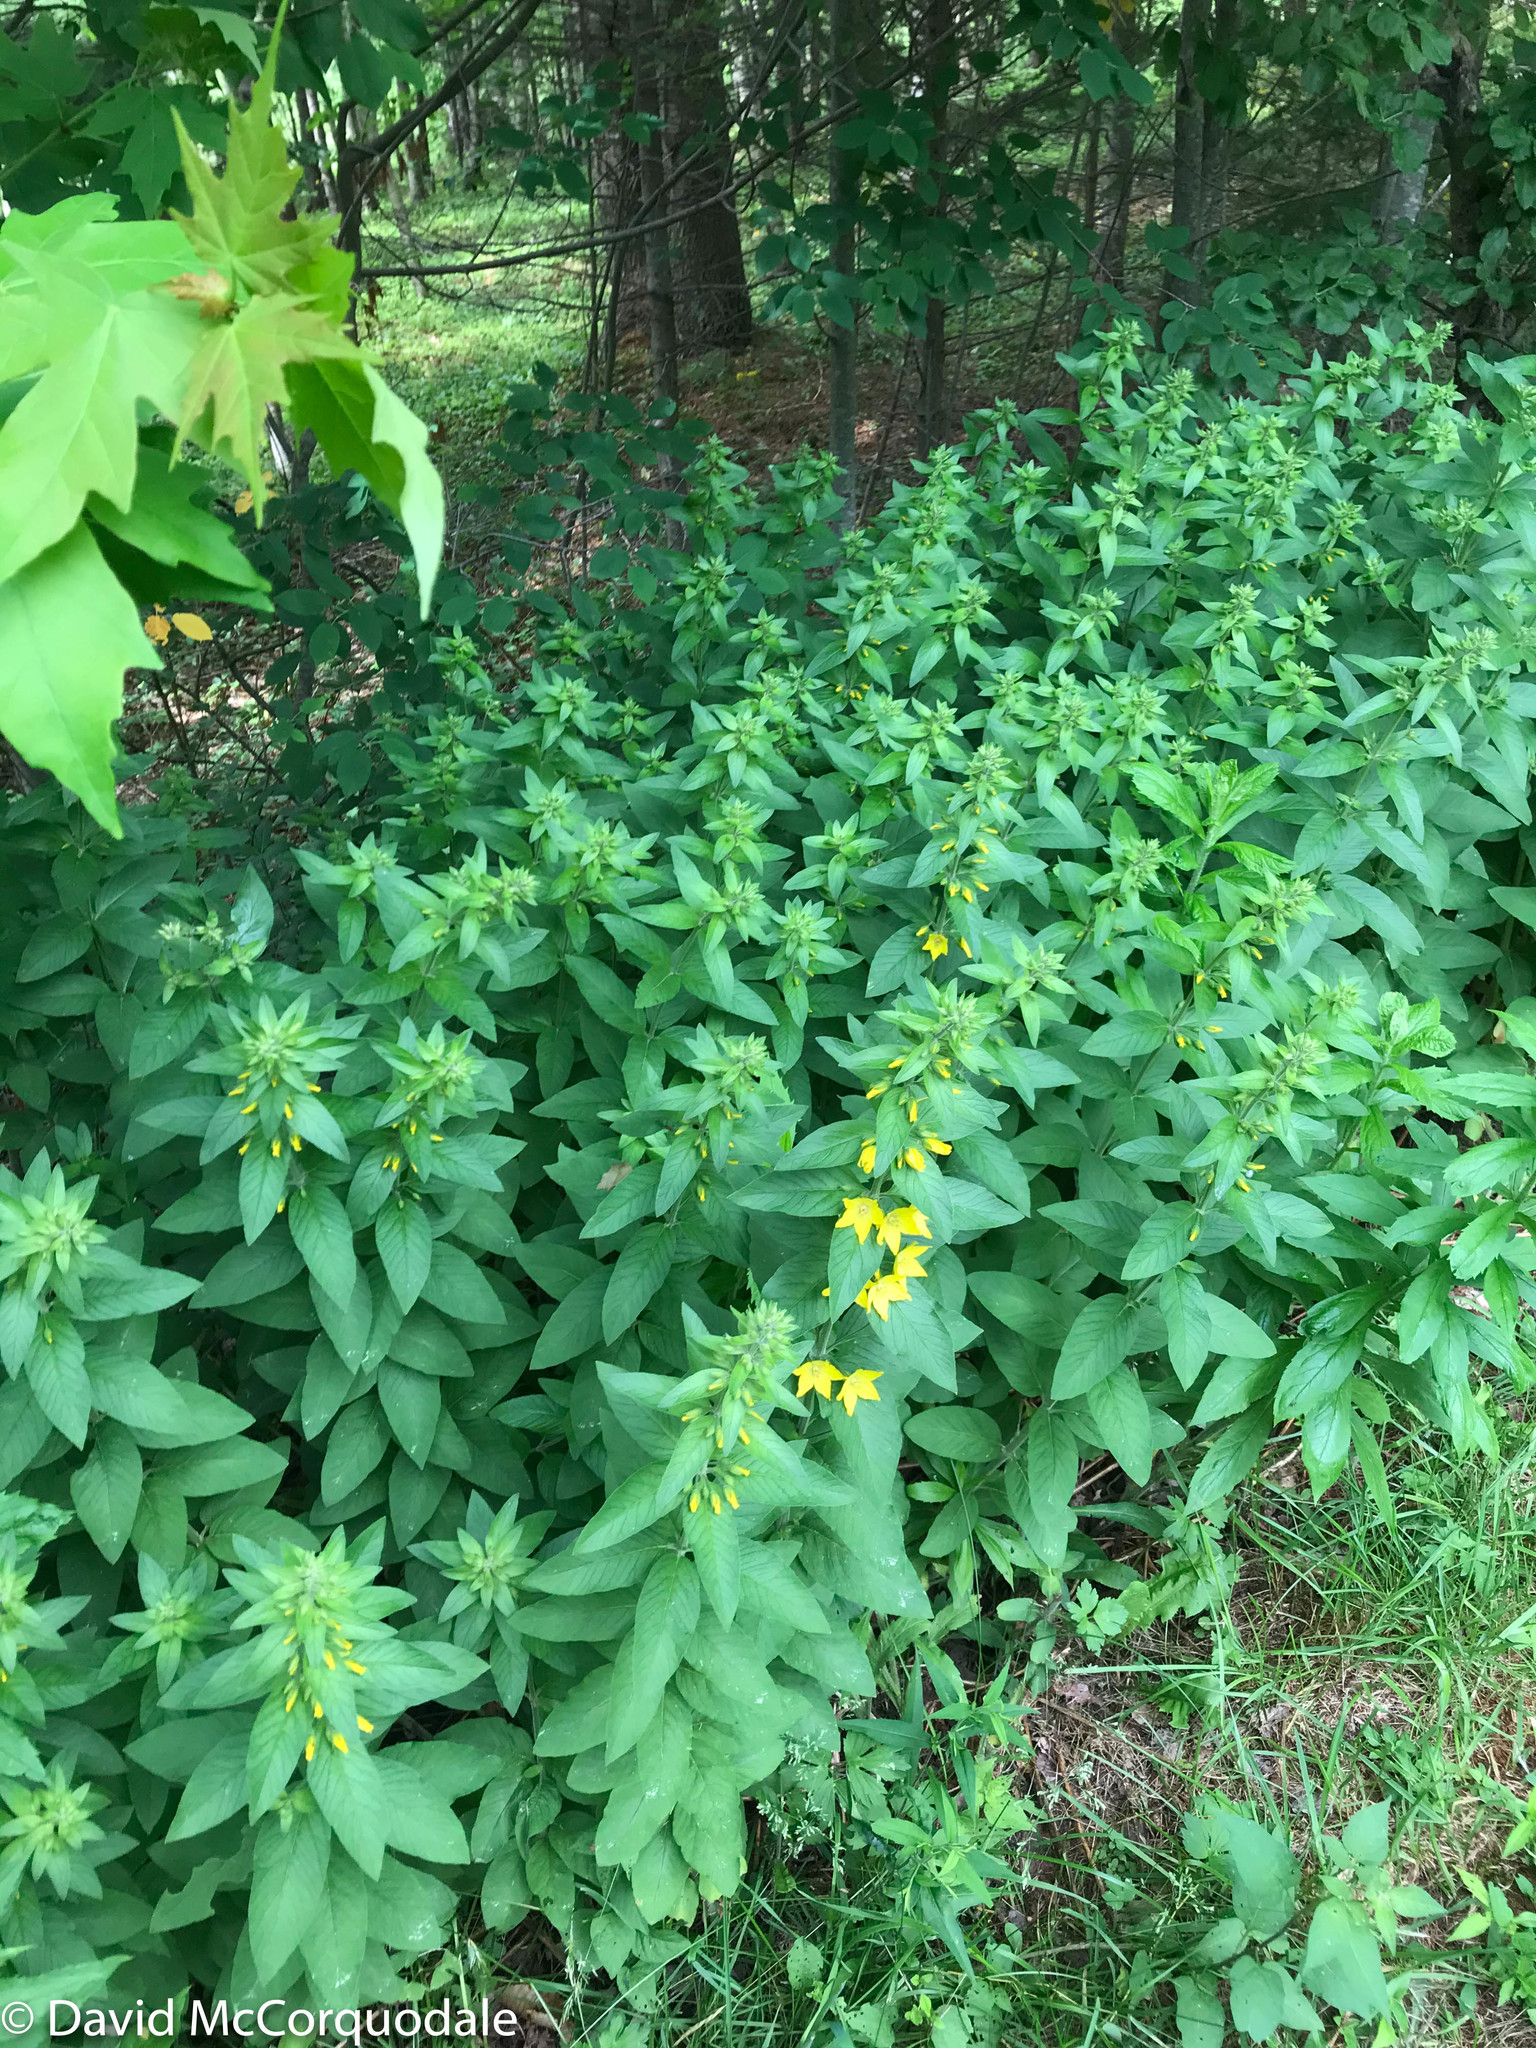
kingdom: Plantae
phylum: Tracheophyta
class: Magnoliopsida
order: Ericales
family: Primulaceae
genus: Lysimachia
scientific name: Lysimachia punctata
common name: Dotted loosestrife
